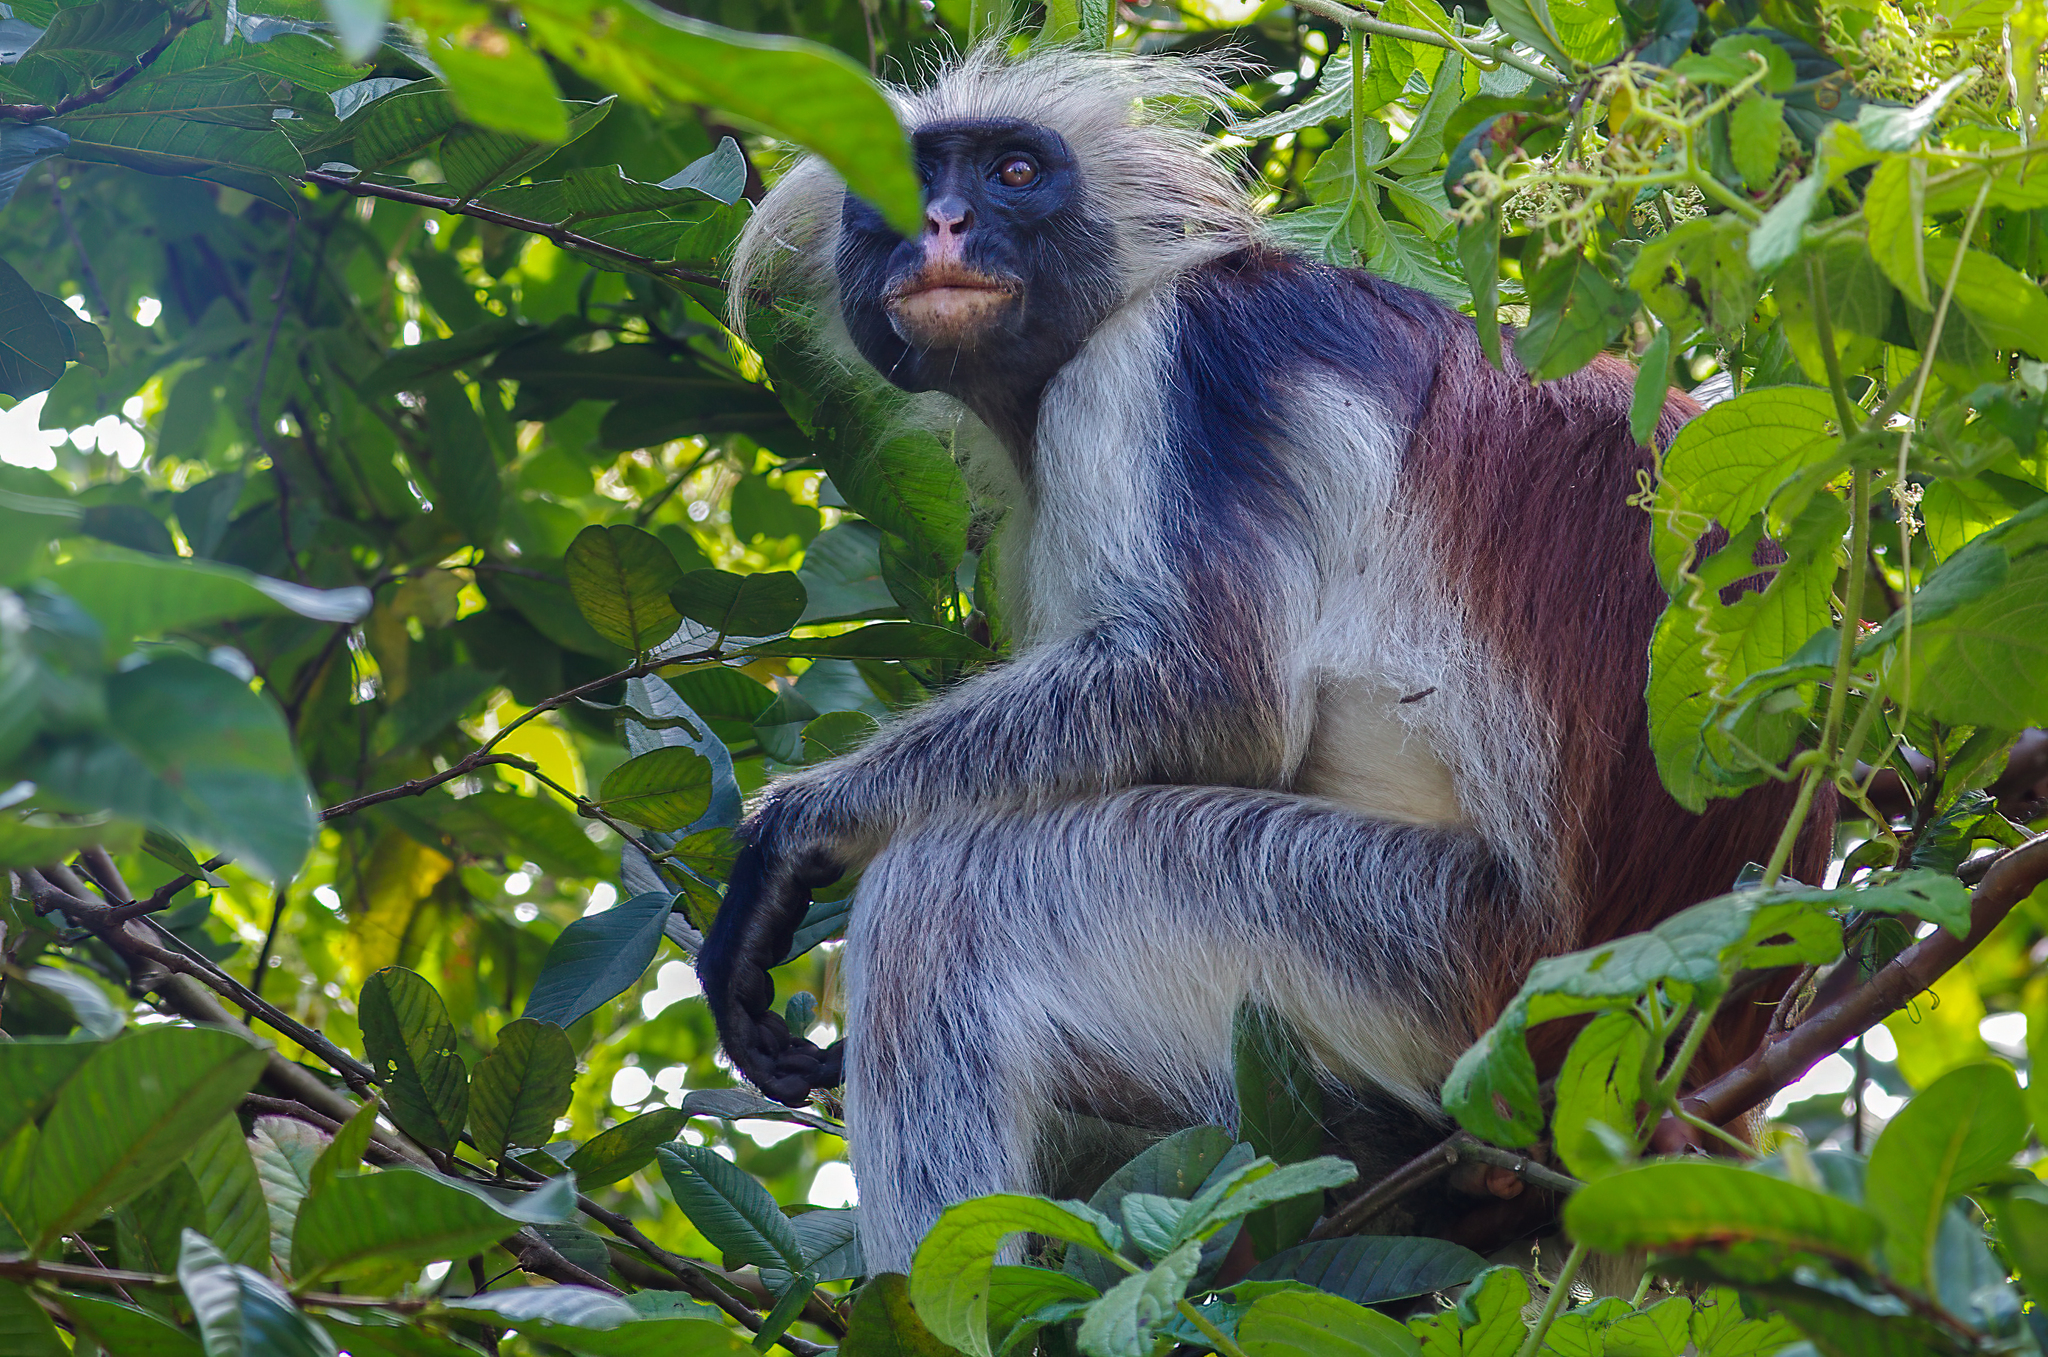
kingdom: Animalia
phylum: Chordata
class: Mammalia
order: Primates
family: Cercopithecidae
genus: Piliocolobus
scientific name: Piliocolobus kirkii
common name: Zanzibar red colobus
